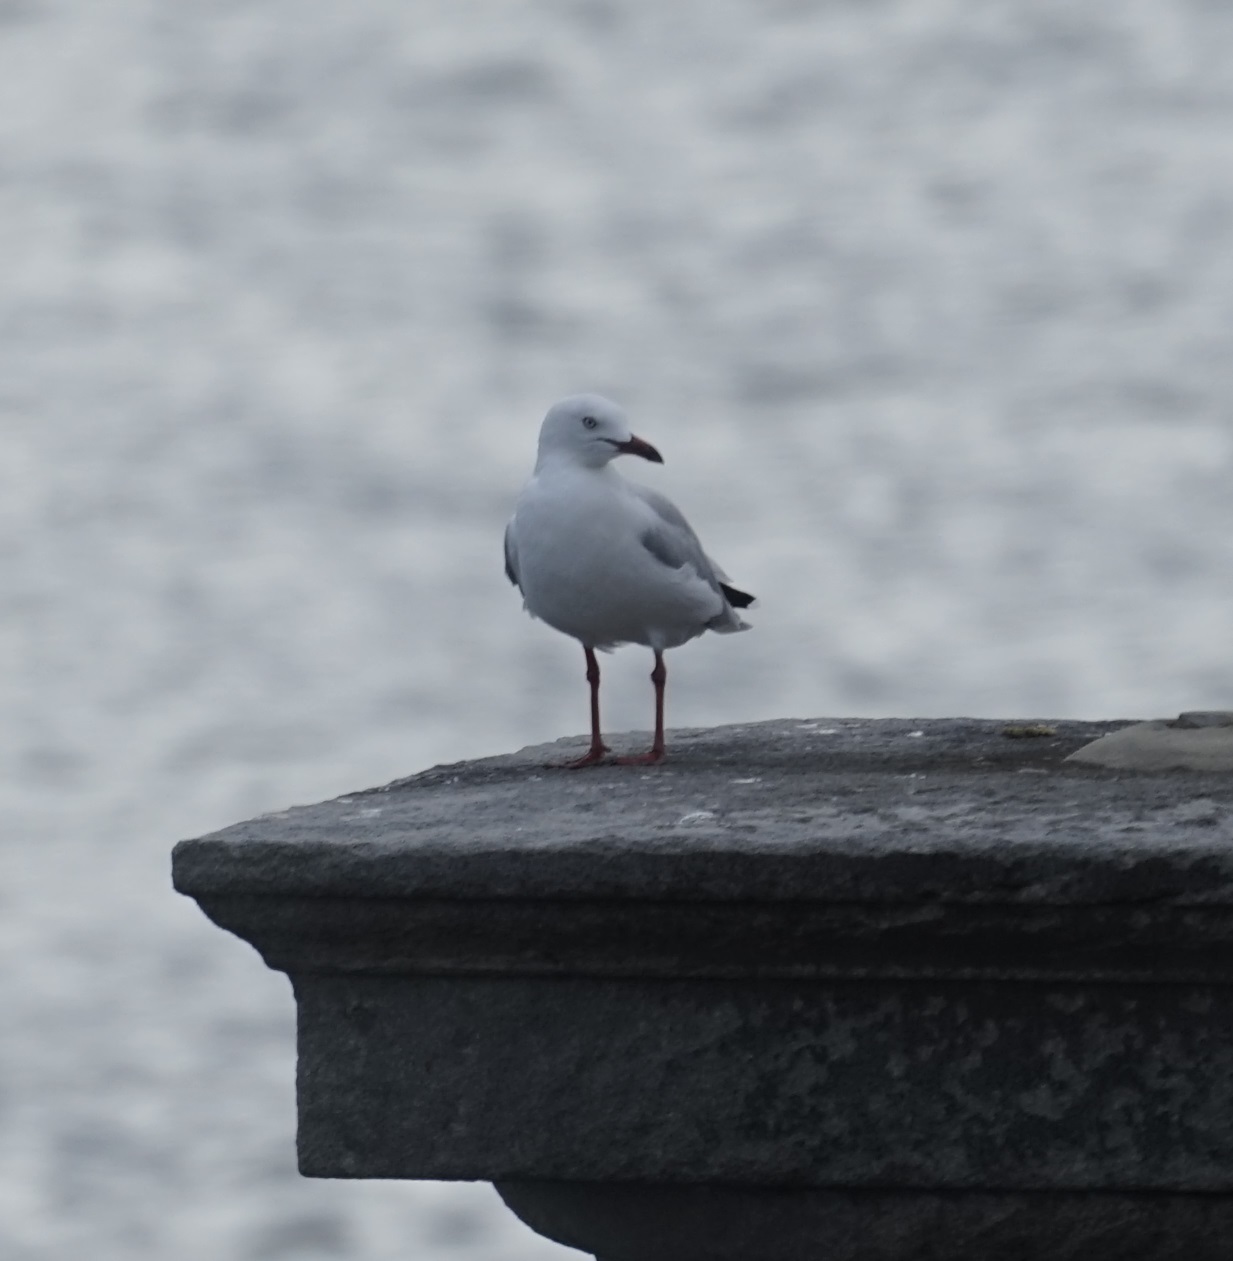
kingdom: Animalia
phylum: Chordata
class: Aves
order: Charadriiformes
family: Laridae
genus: Chroicocephalus
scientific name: Chroicocephalus novaehollandiae
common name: Silver gull
